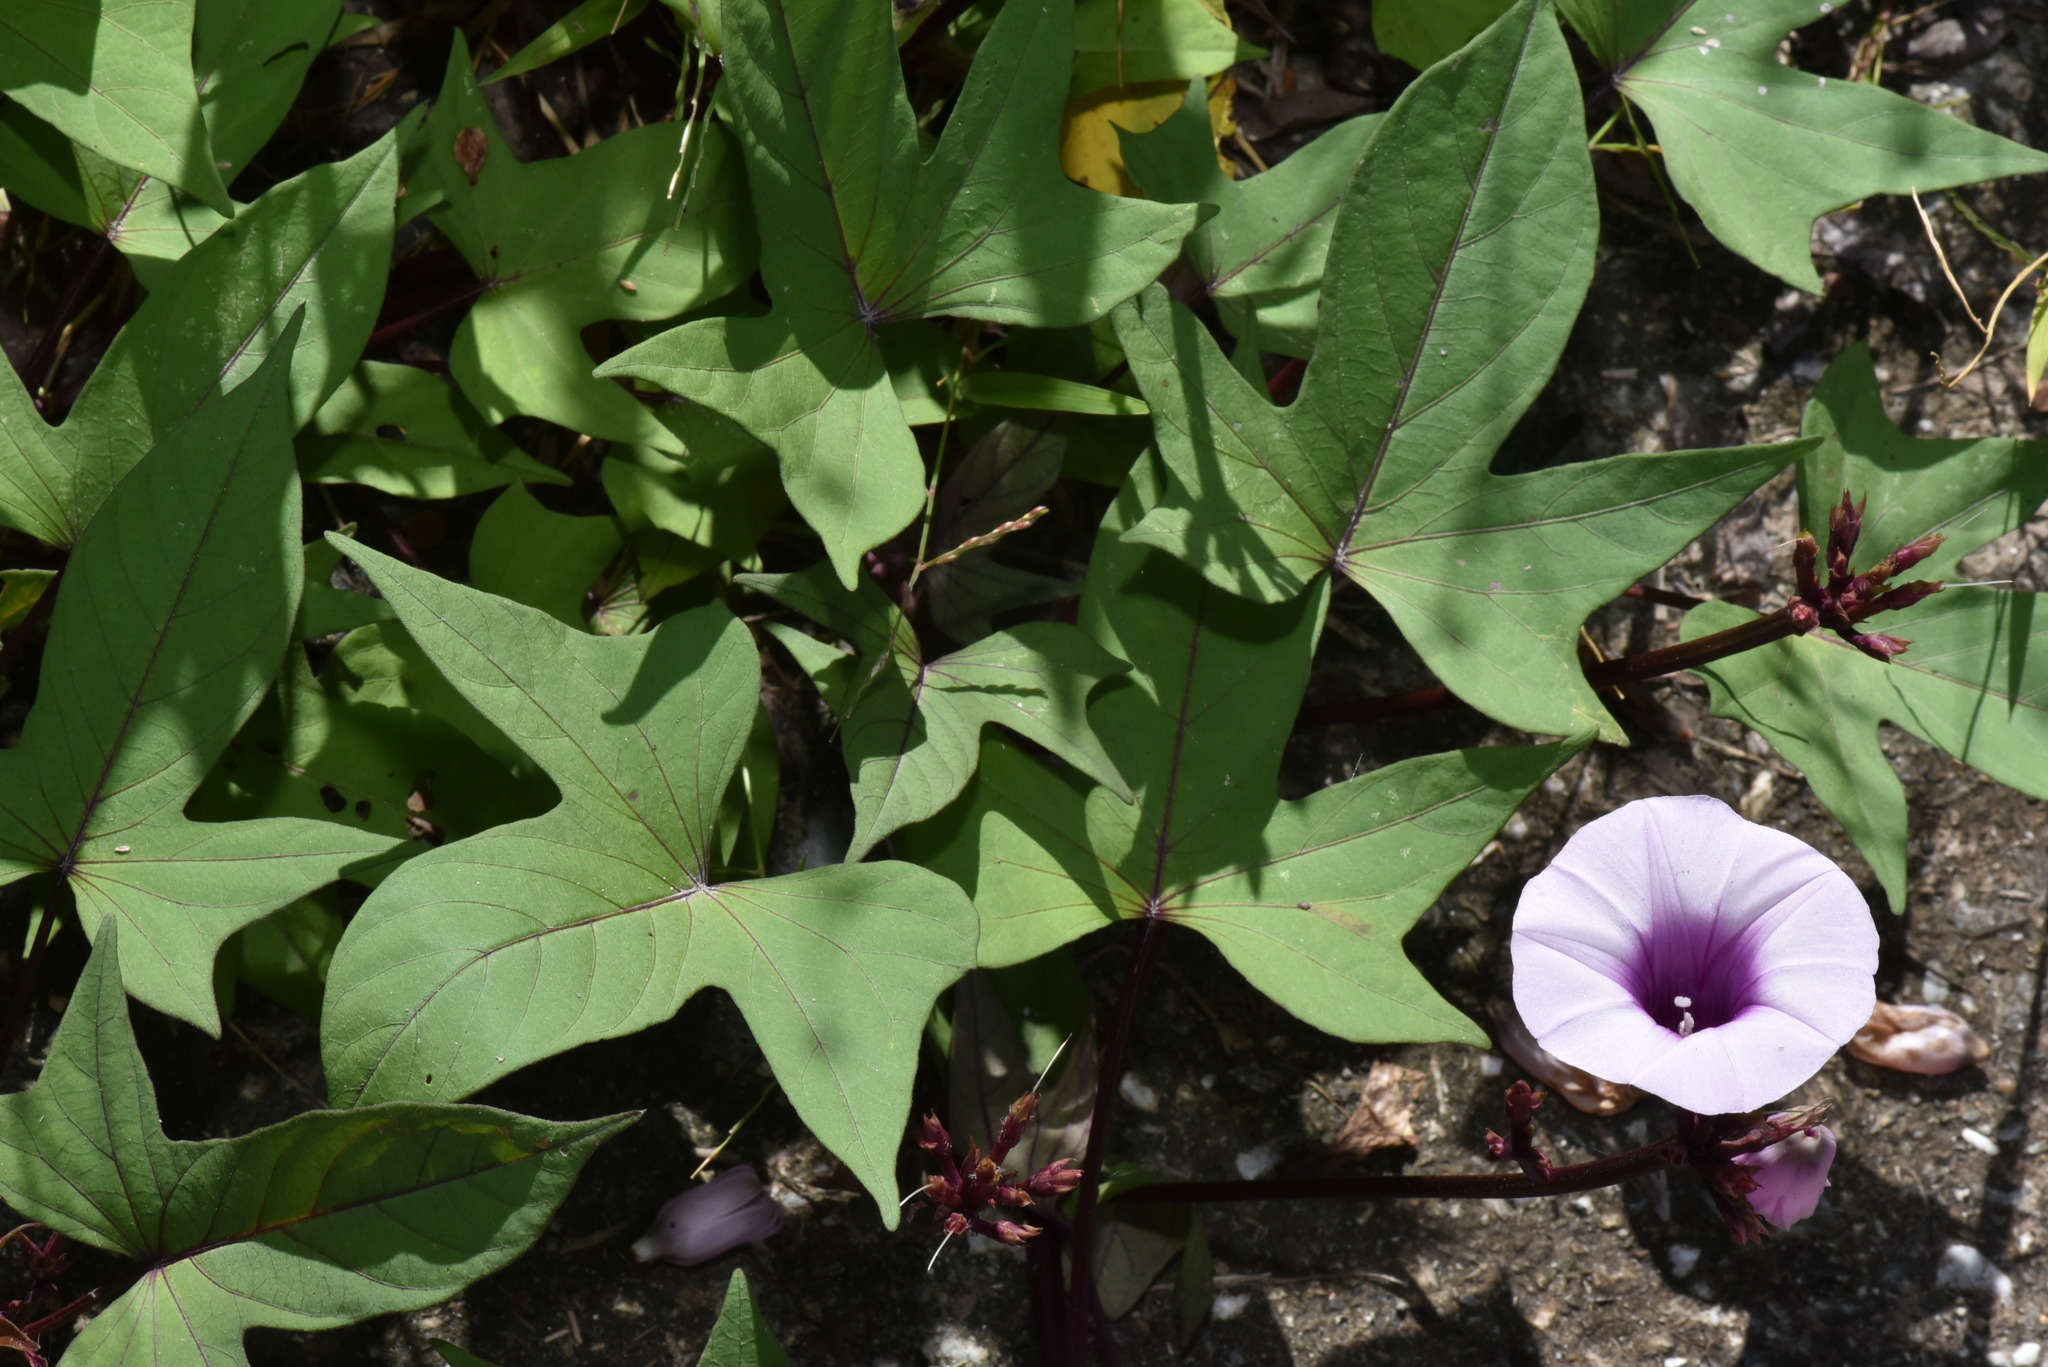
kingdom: Plantae
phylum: Tracheophyta
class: Magnoliopsida
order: Solanales
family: Convolvulaceae
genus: Ipomoea
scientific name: Ipomoea batatas
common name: Sweet-potato
